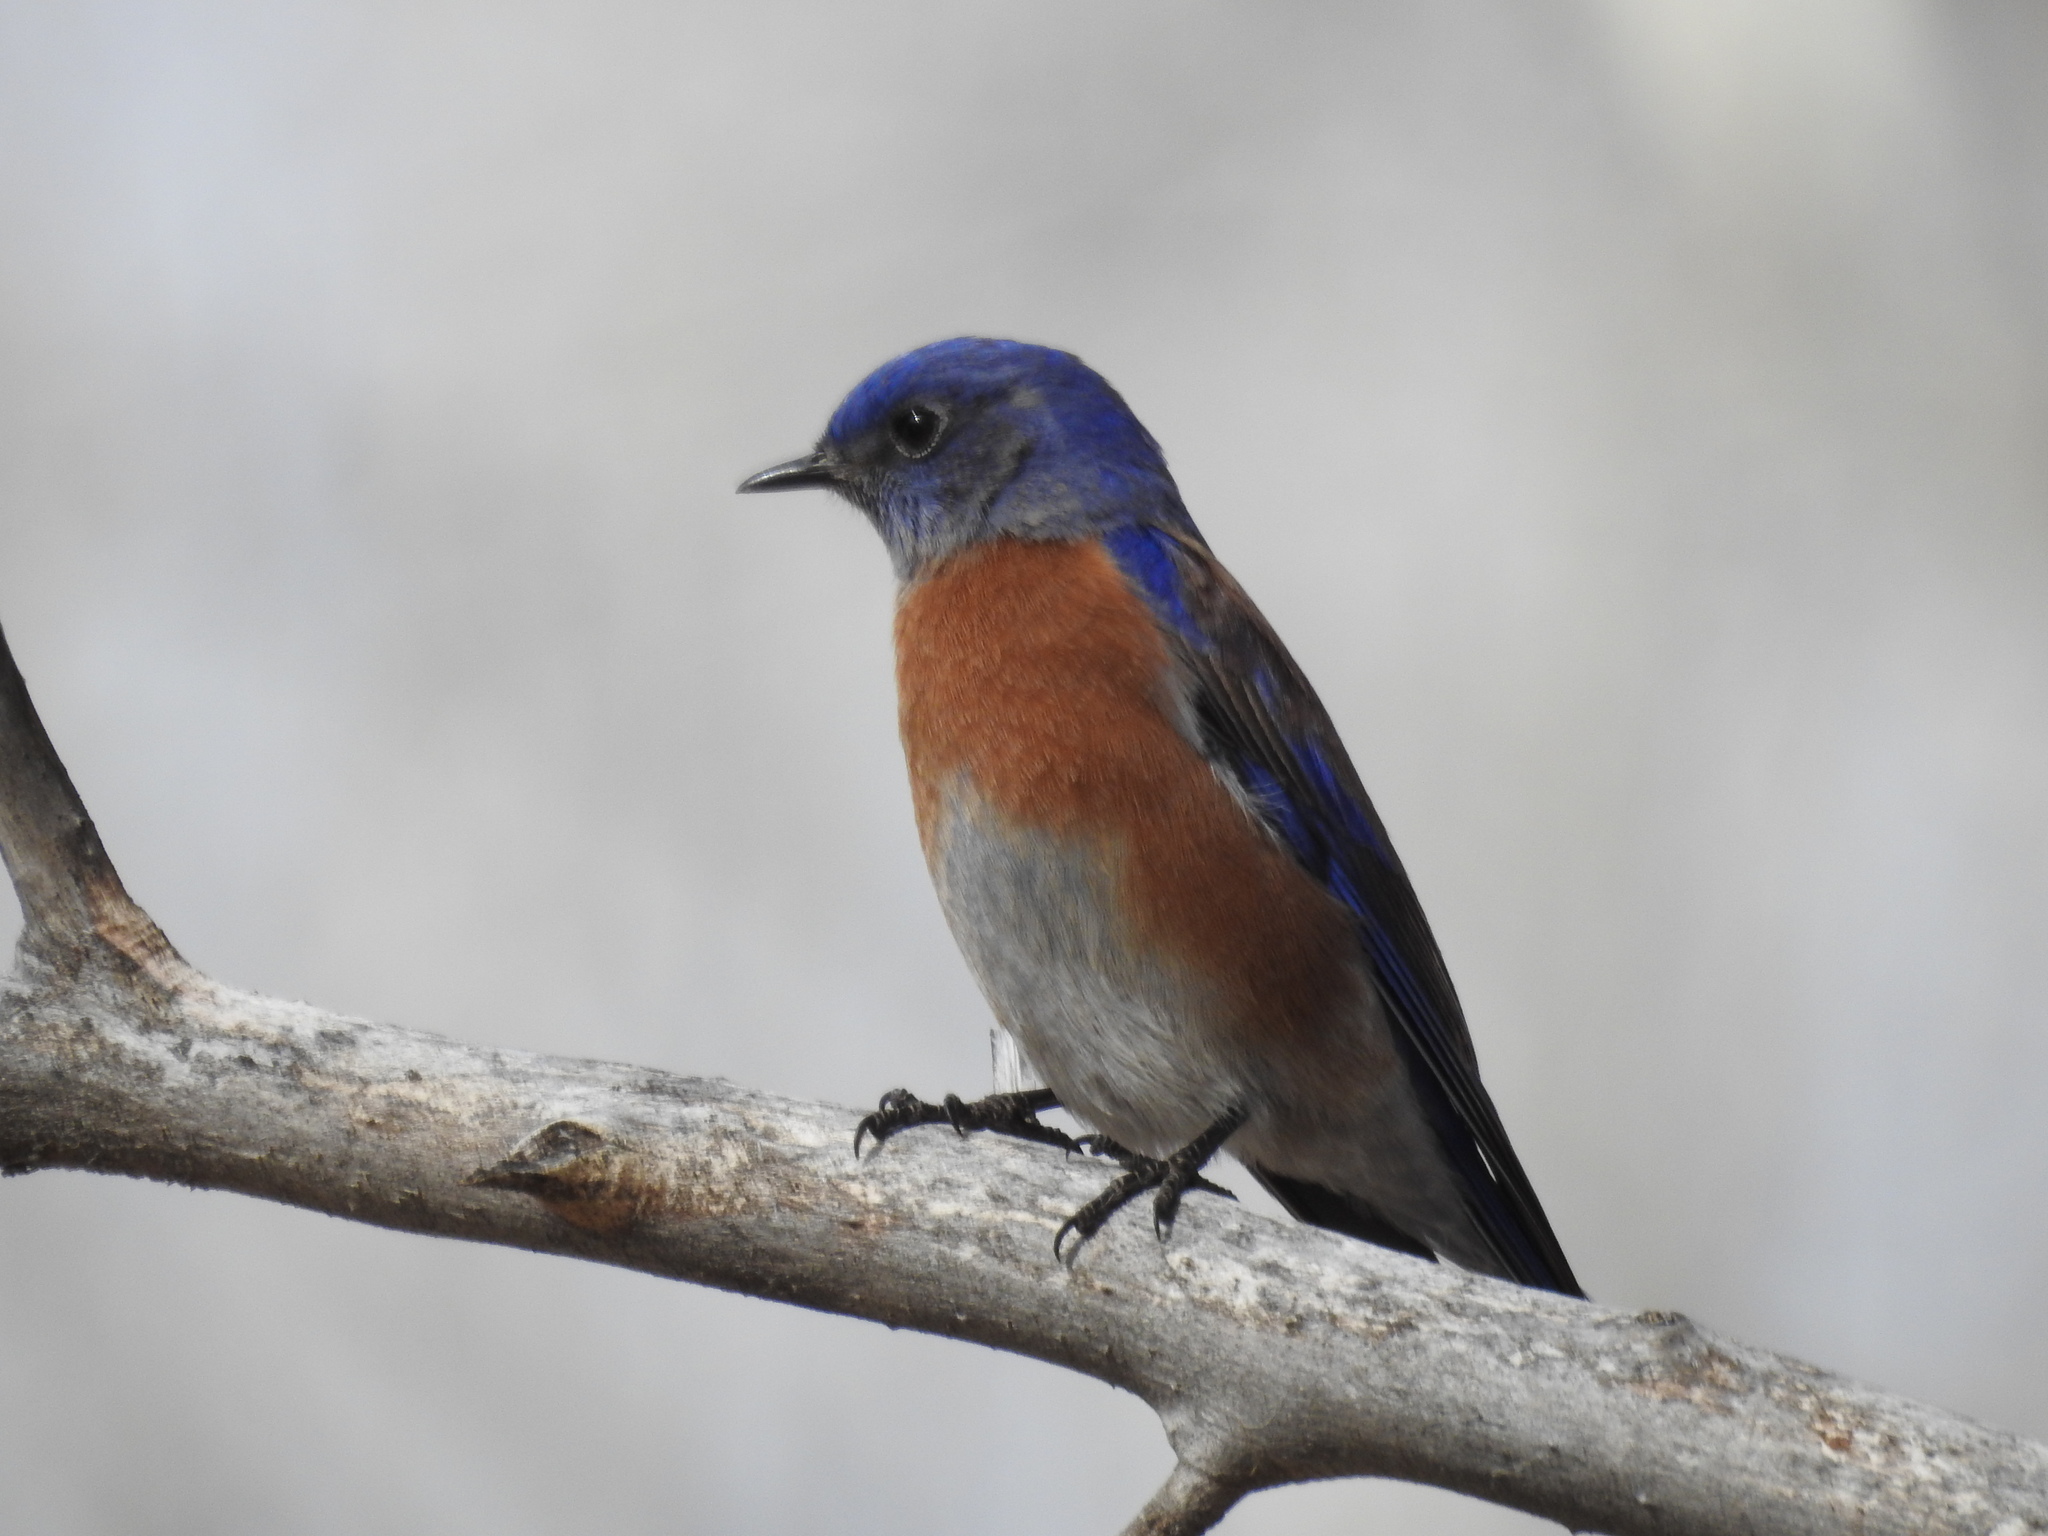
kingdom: Animalia
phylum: Chordata
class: Aves
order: Passeriformes
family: Turdidae
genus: Sialia
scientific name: Sialia mexicana
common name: Western bluebird
